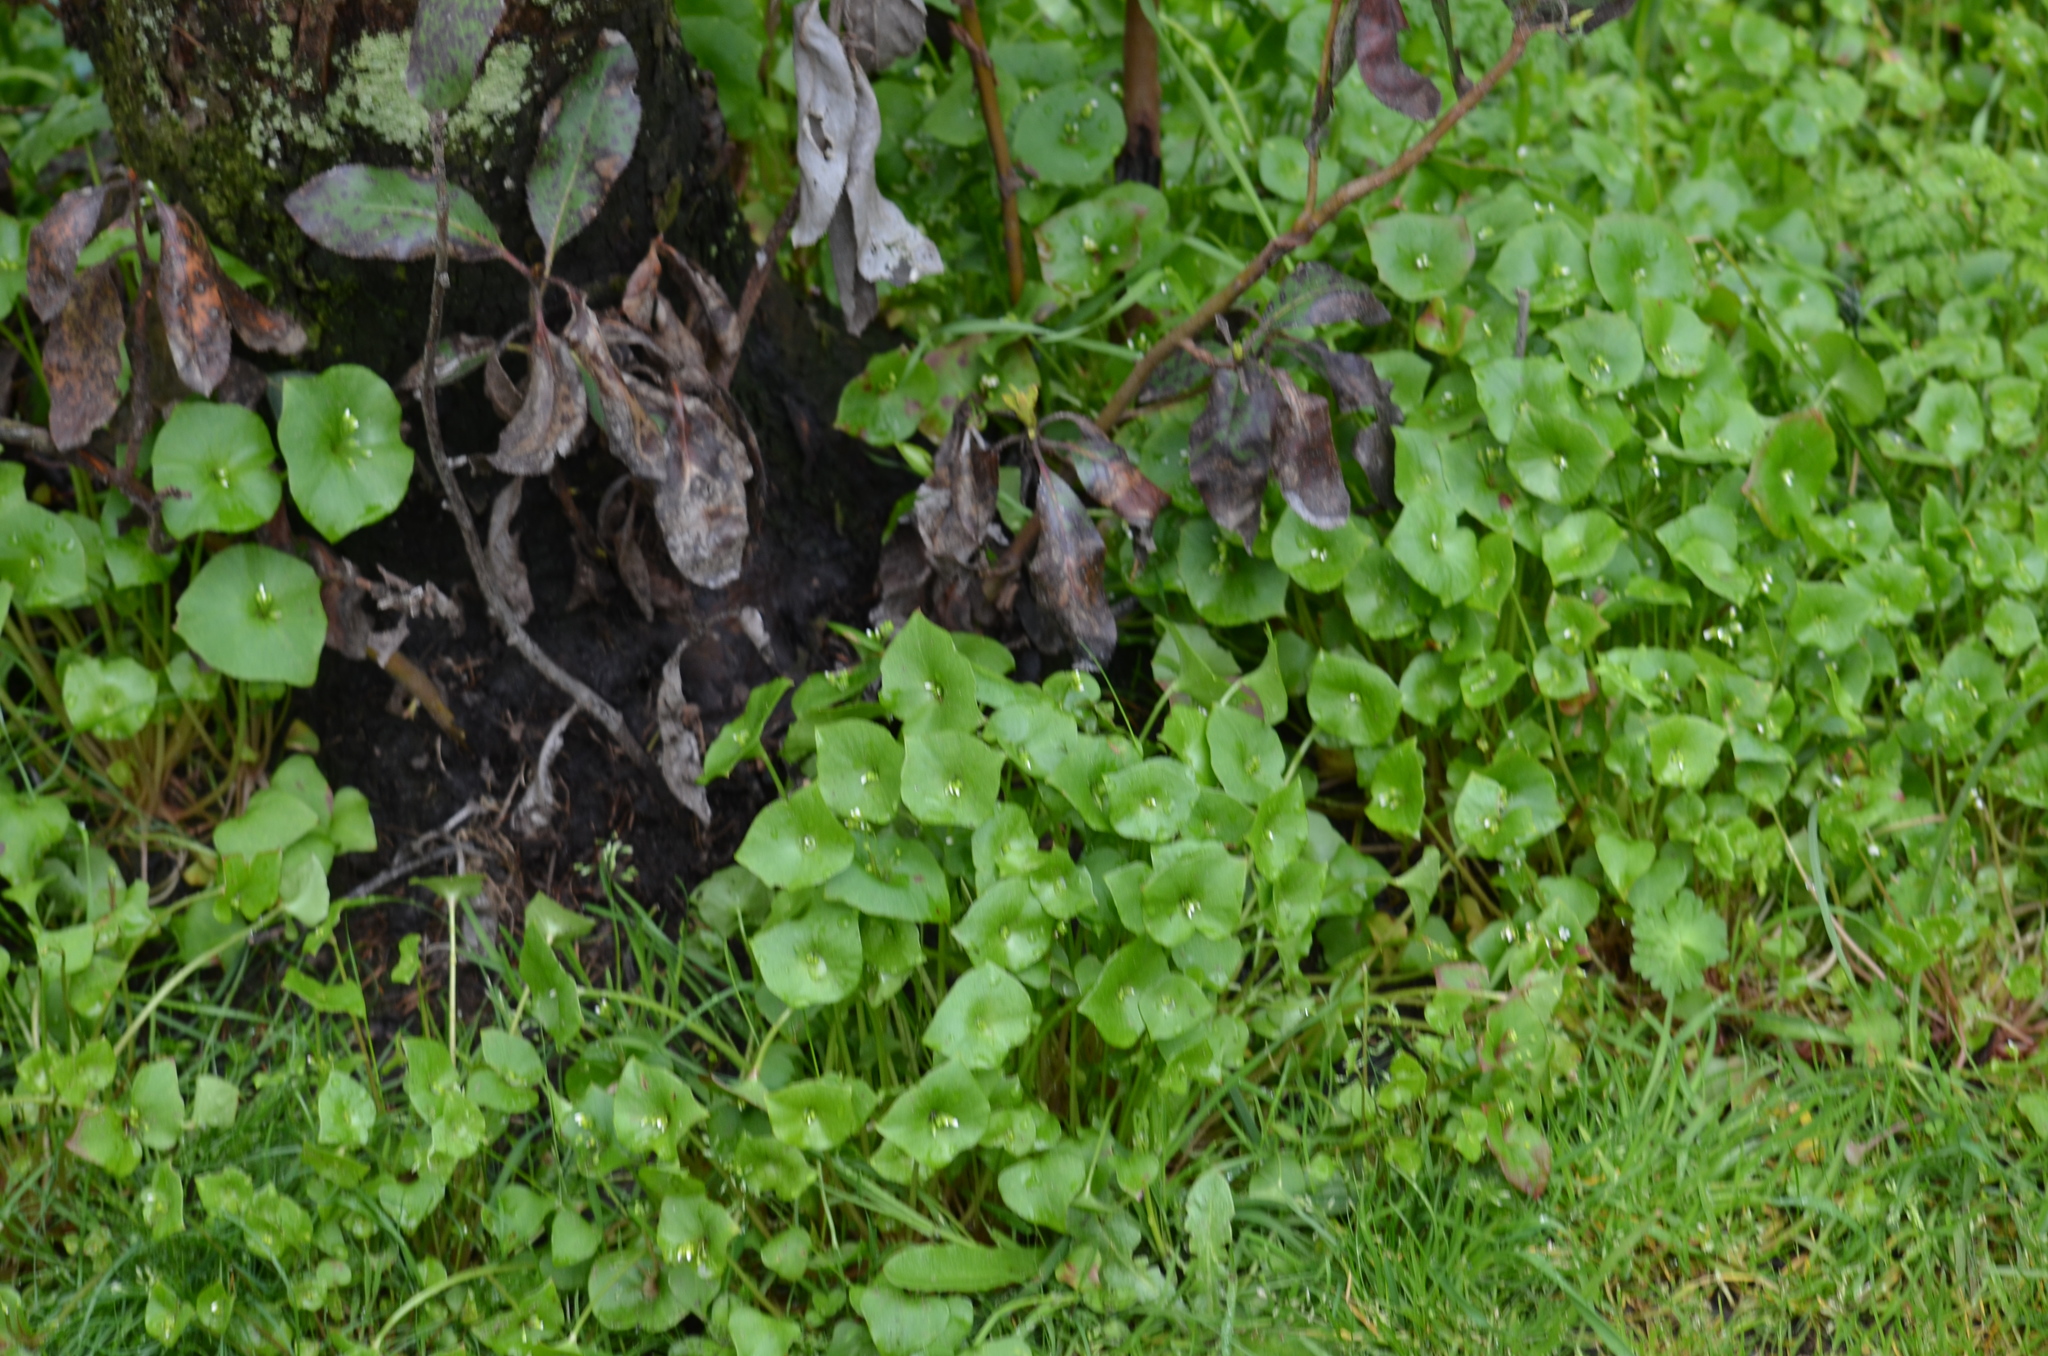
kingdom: Plantae
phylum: Tracheophyta
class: Magnoliopsida
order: Caryophyllales
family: Montiaceae
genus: Claytonia
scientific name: Claytonia perfoliata
